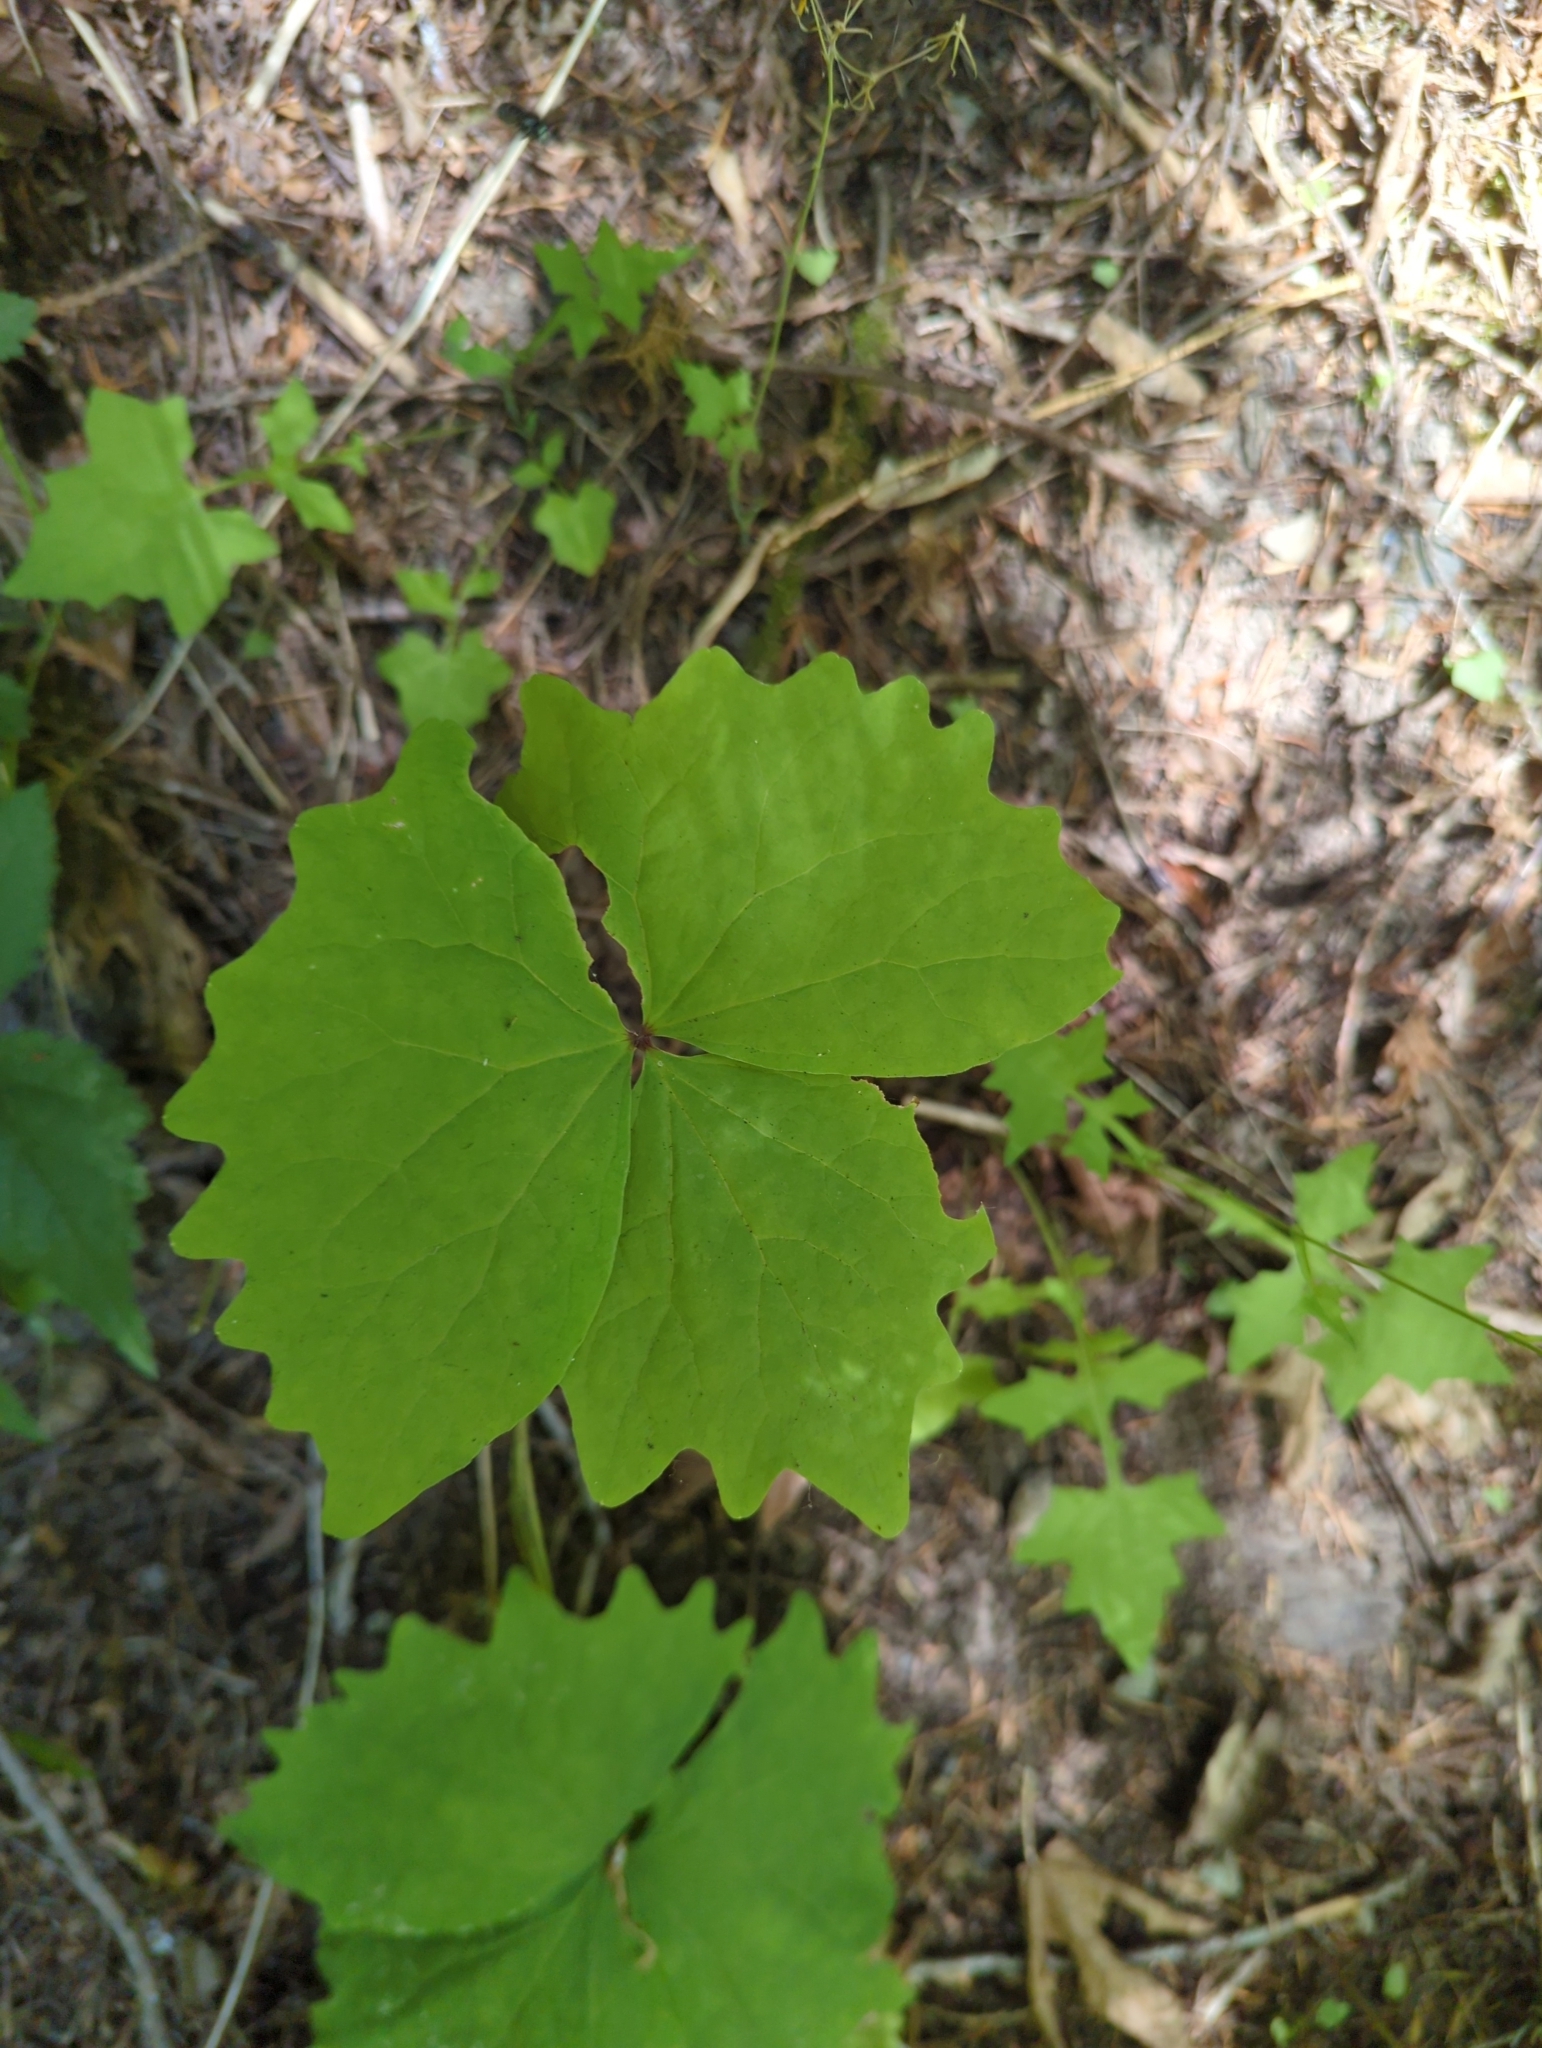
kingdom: Plantae
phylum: Tracheophyta
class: Magnoliopsida
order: Ranunculales
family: Berberidaceae
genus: Achlys
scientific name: Achlys triphylla
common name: Vanilla-leaf
